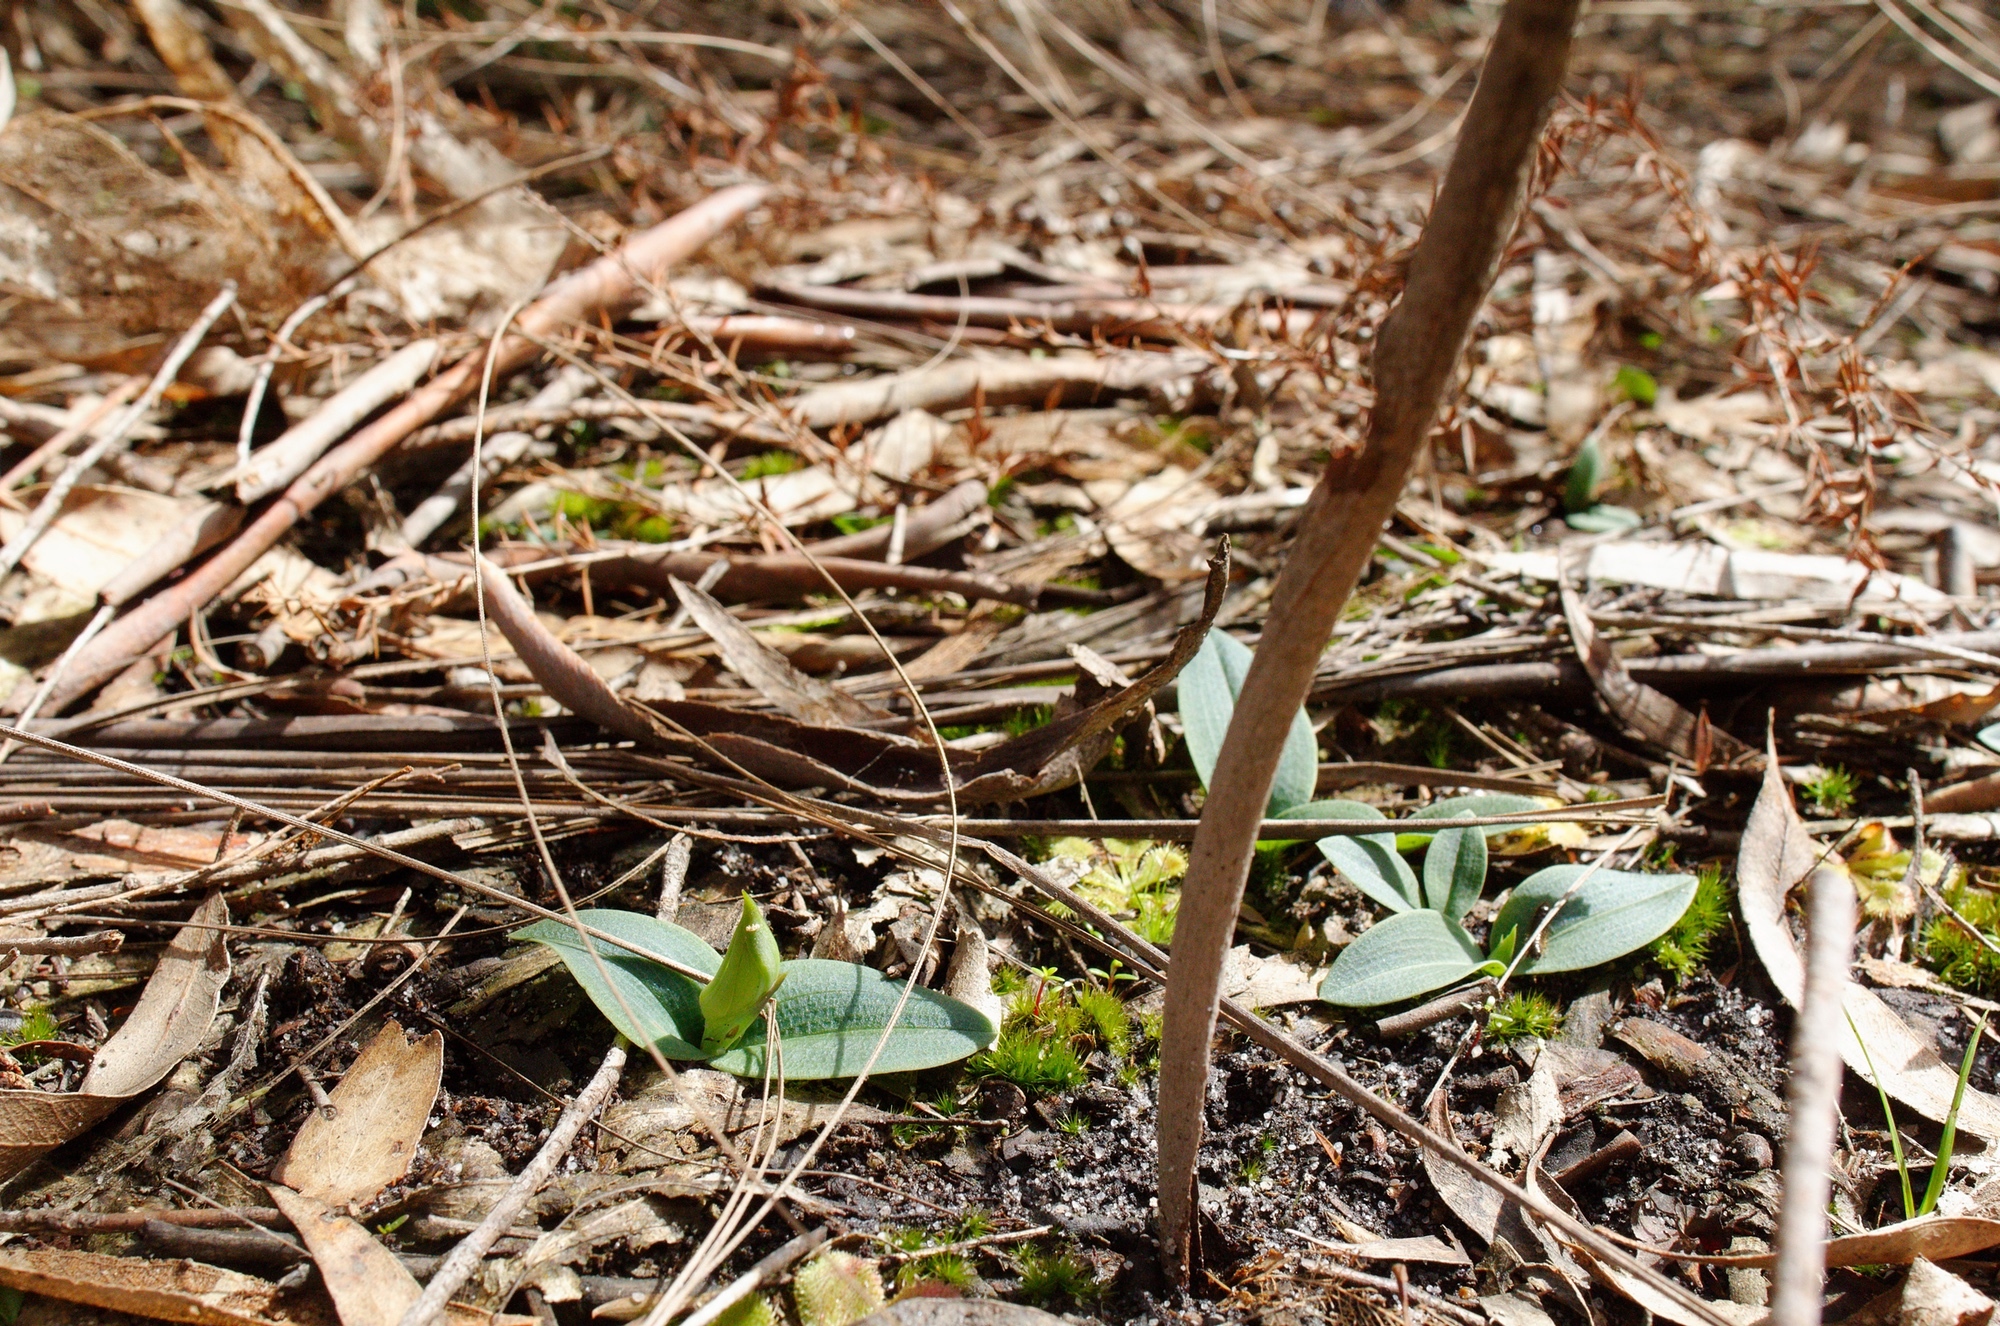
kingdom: Plantae
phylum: Tracheophyta
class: Liliopsida
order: Asparagales
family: Orchidaceae
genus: Chiloglottis
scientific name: Chiloglottis valida
